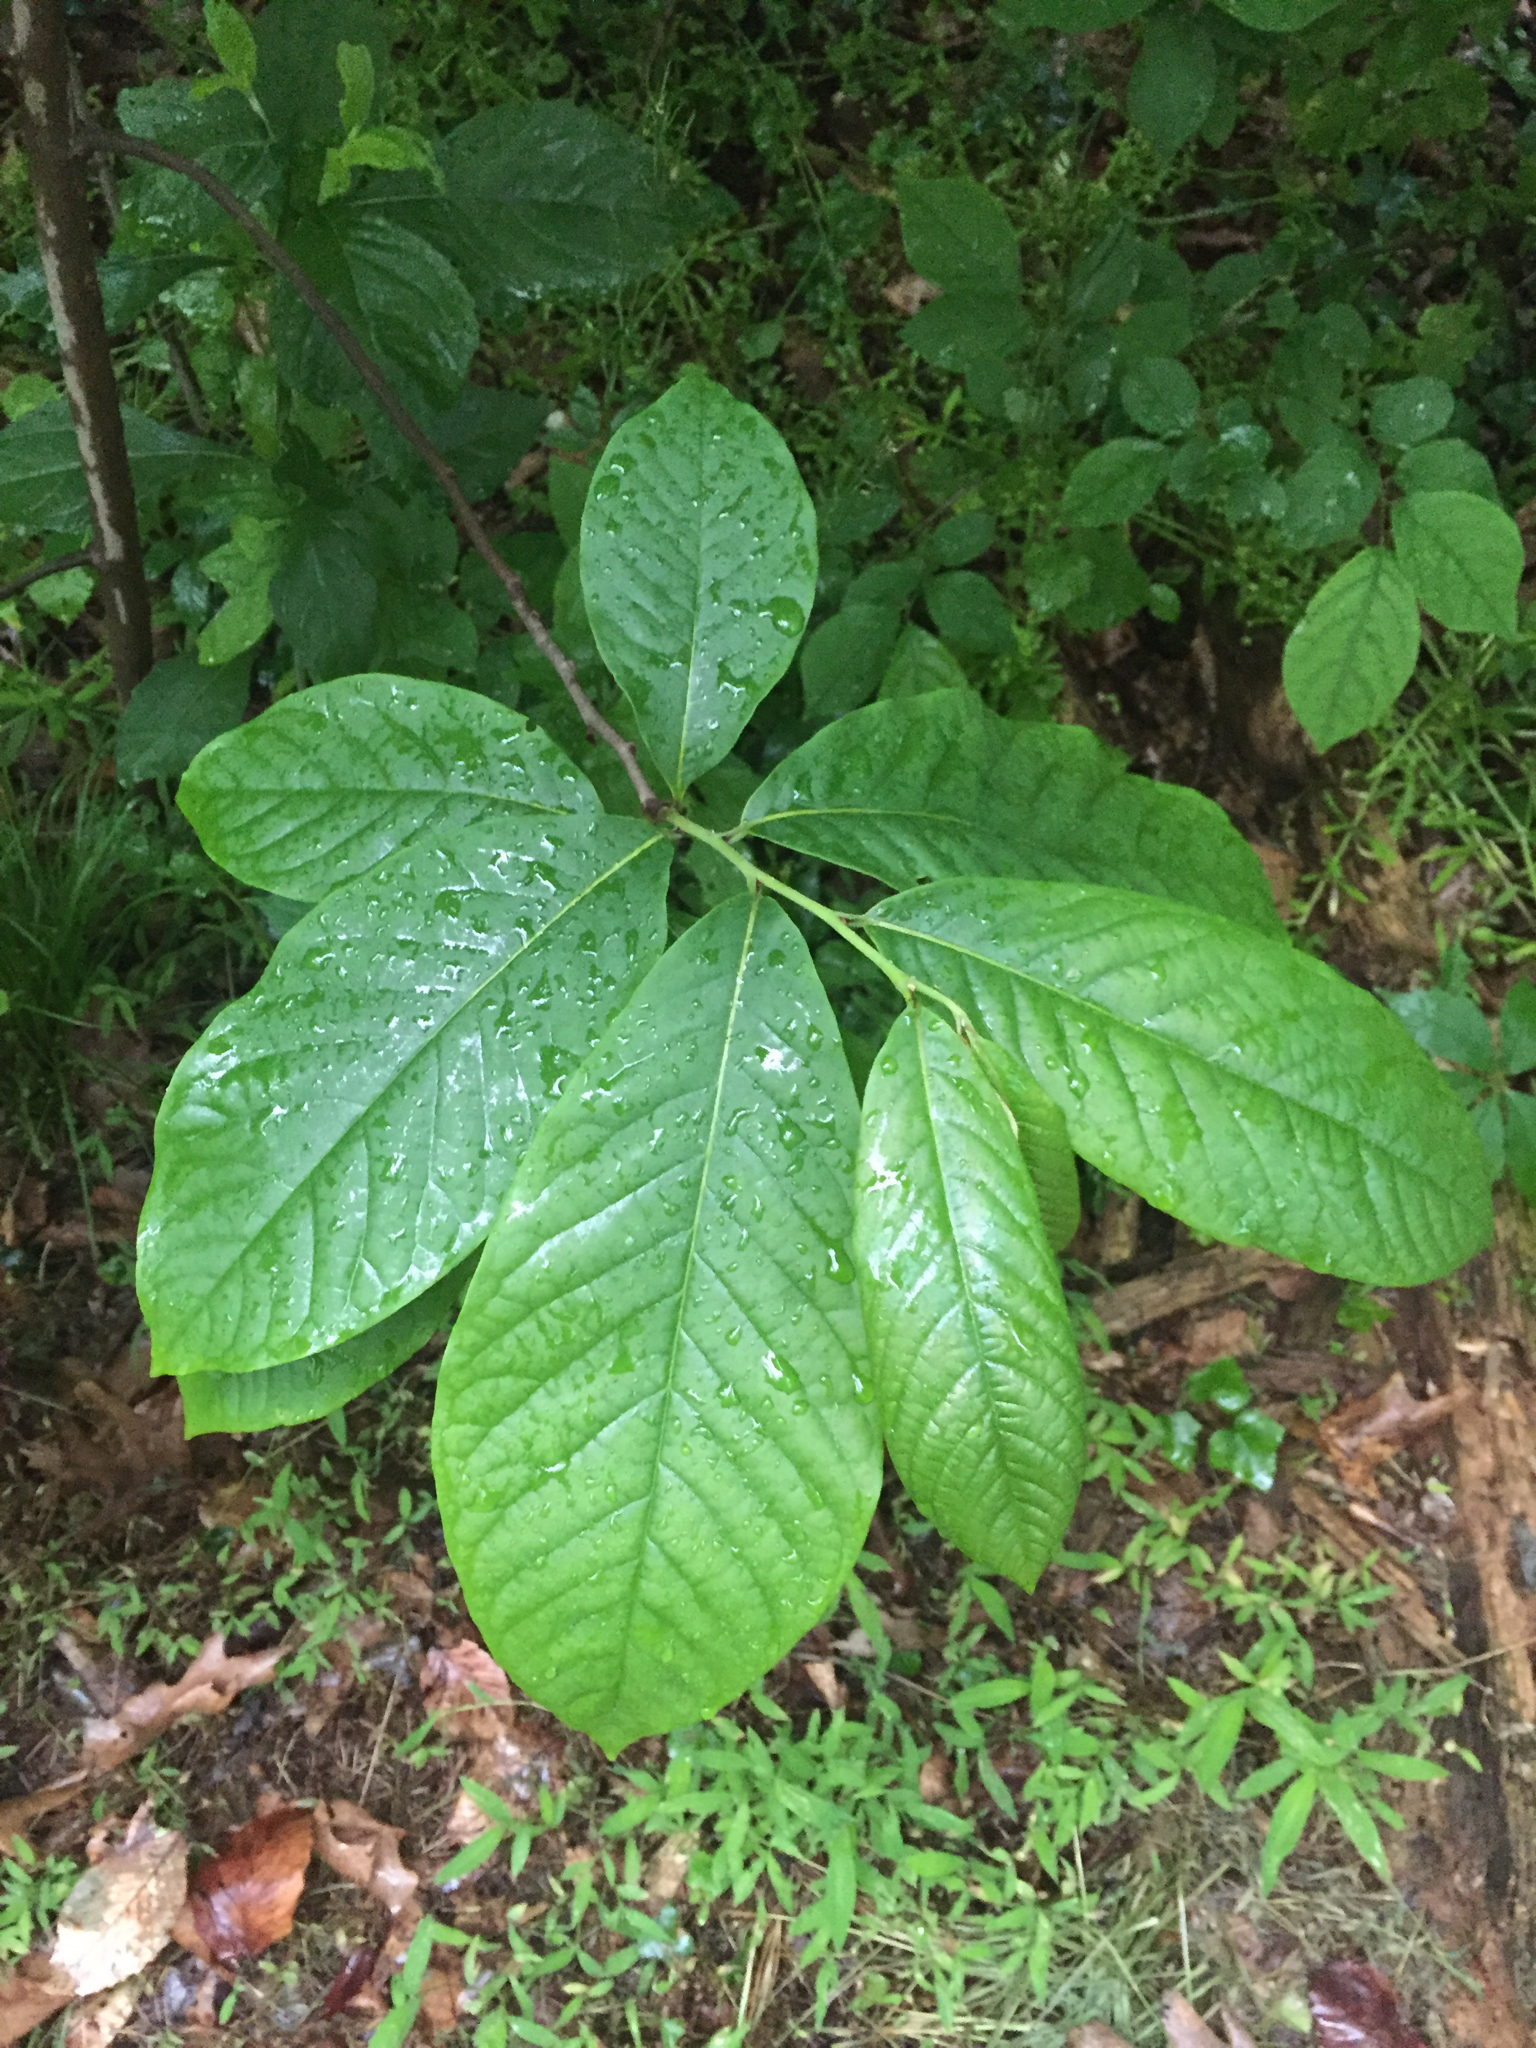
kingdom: Plantae
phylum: Tracheophyta
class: Magnoliopsida
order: Magnoliales
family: Annonaceae
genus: Asimina
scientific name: Asimina triloba
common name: Dog-banana
